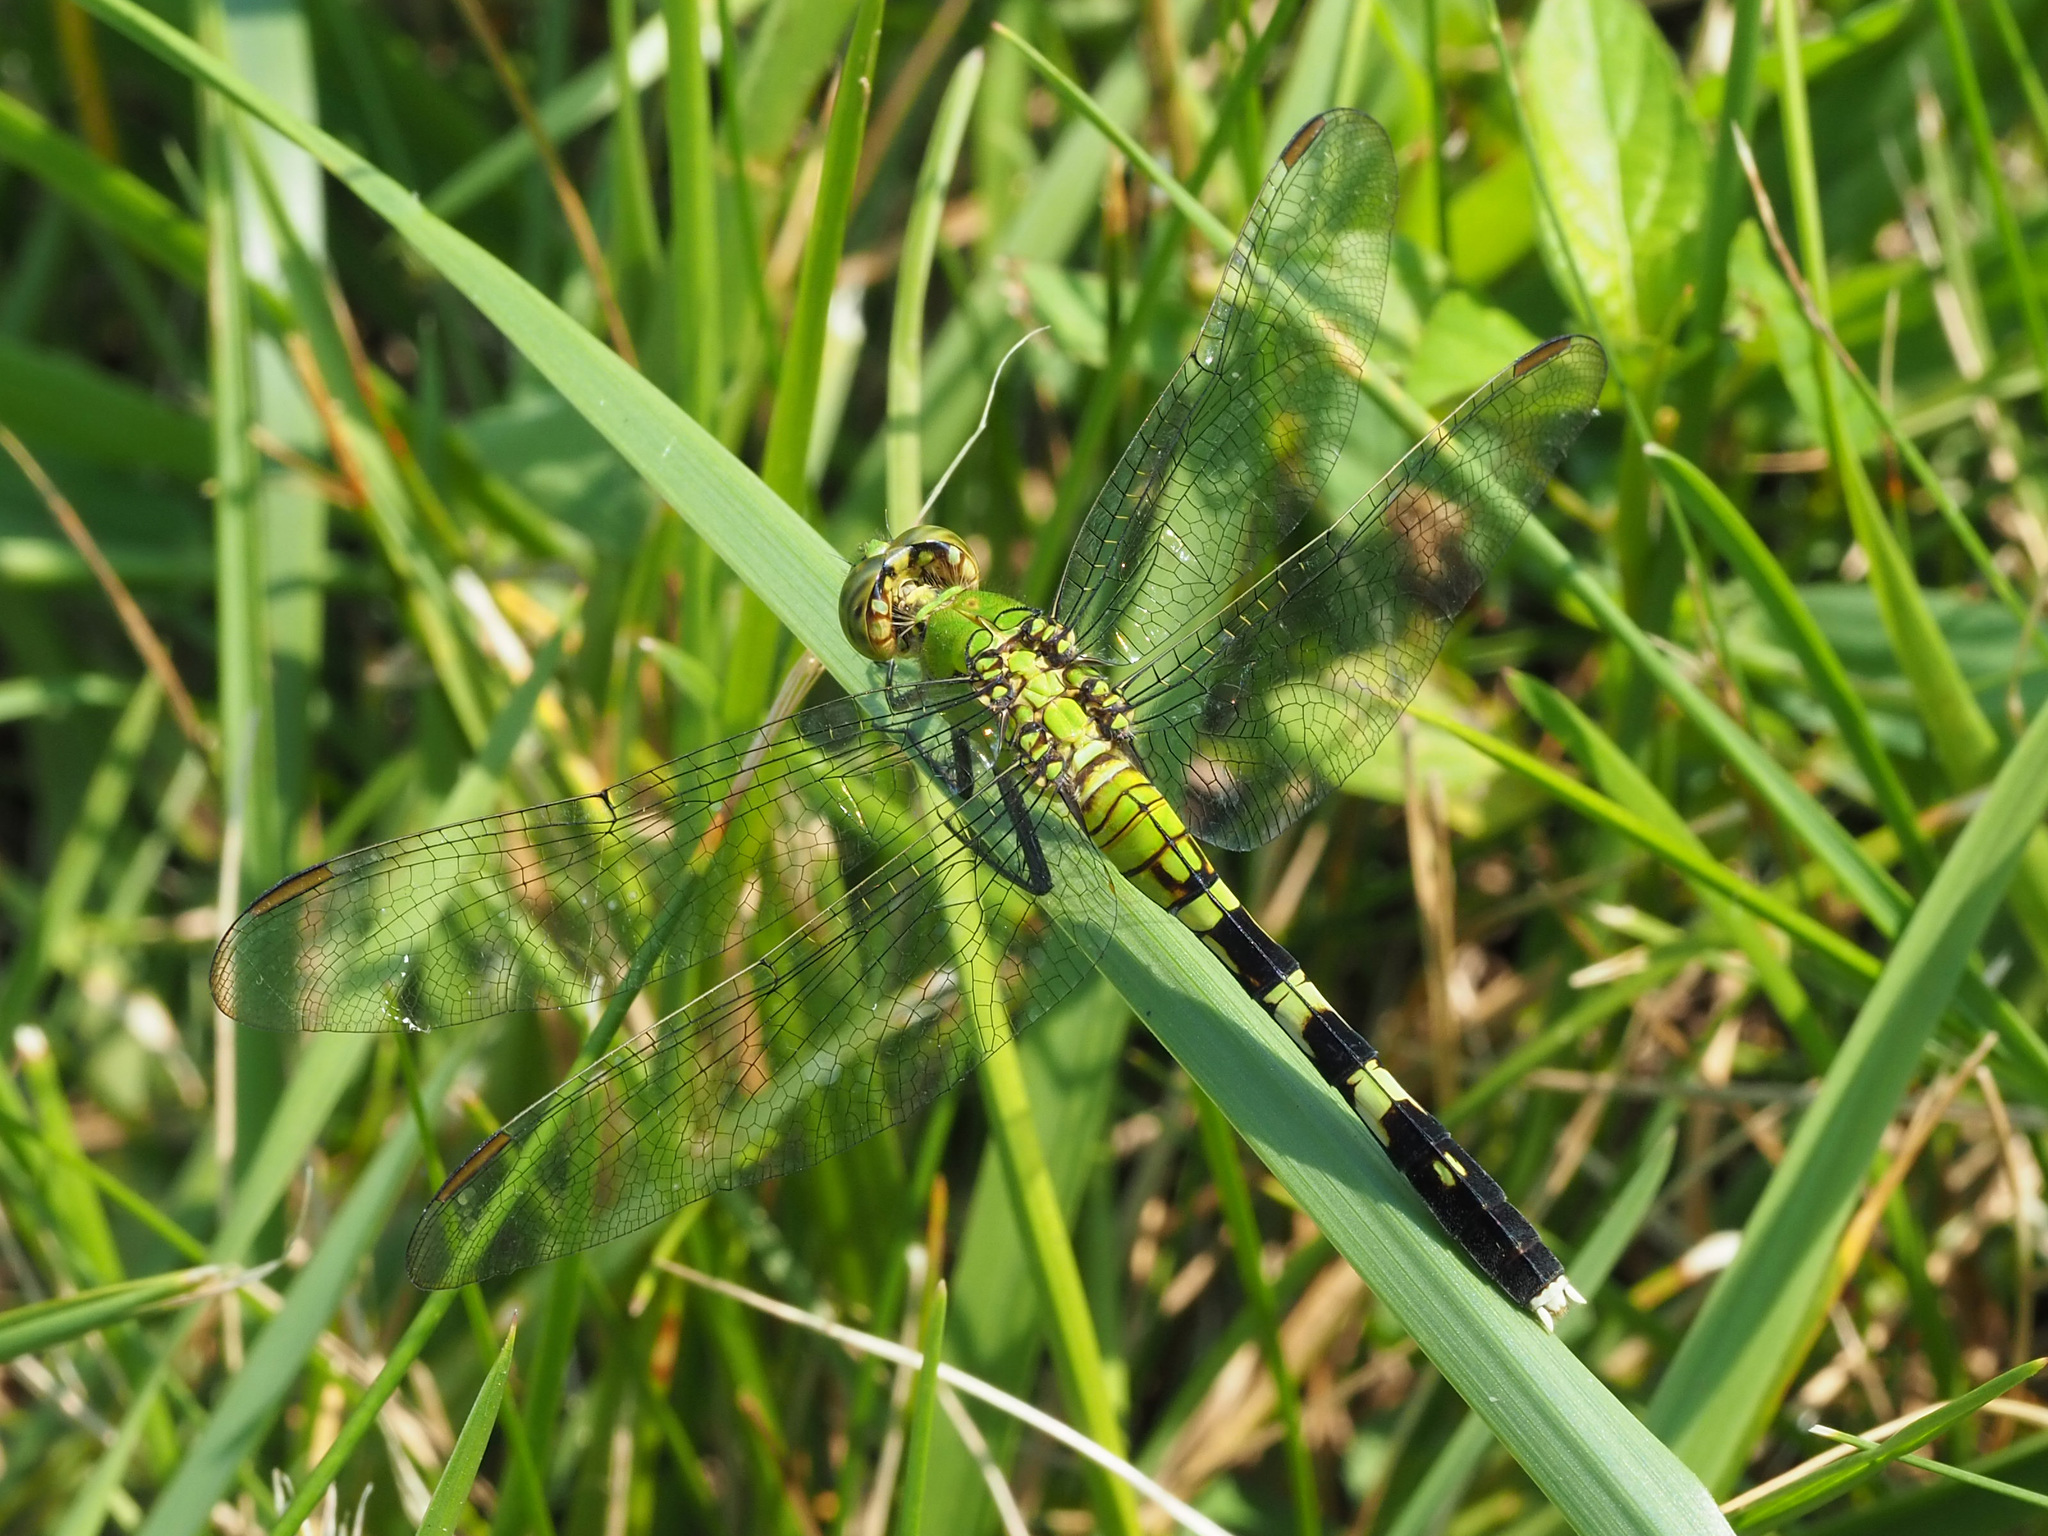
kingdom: Animalia
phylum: Arthropoda
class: Insecta
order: Odonata
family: Libellulidae
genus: Erythemis
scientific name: Erythemis simplicicollis
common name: Eastern pondhawk
